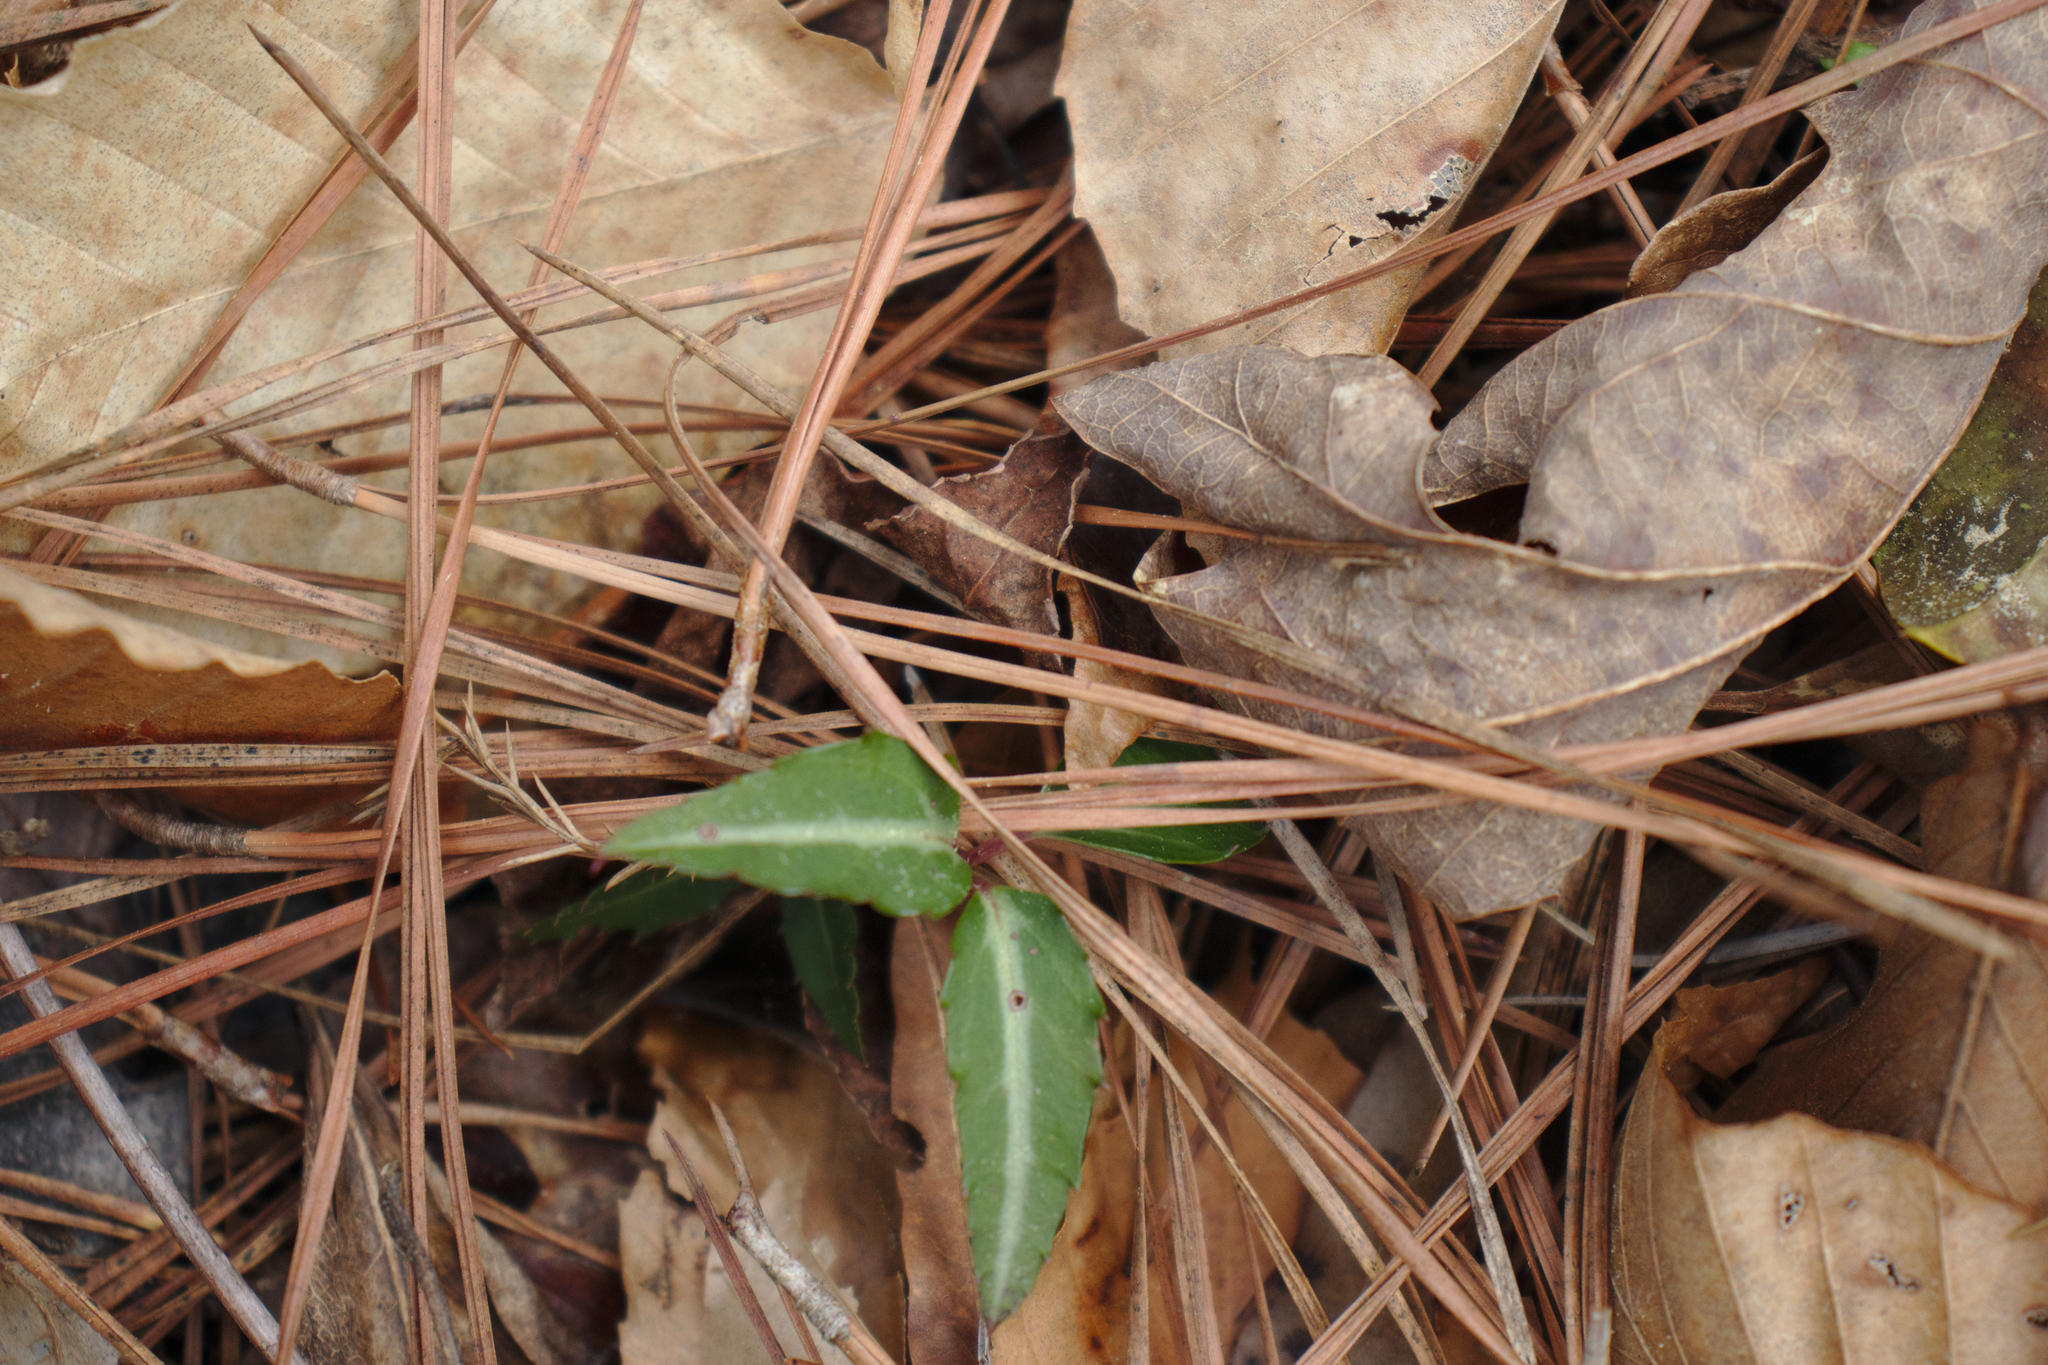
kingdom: Plantae
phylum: Tracheophyta
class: Magnoliopsida
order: Ericales
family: Ericaceae
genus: Chimaphila
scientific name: Chimaphila maculata
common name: Spotted pipsissewa
